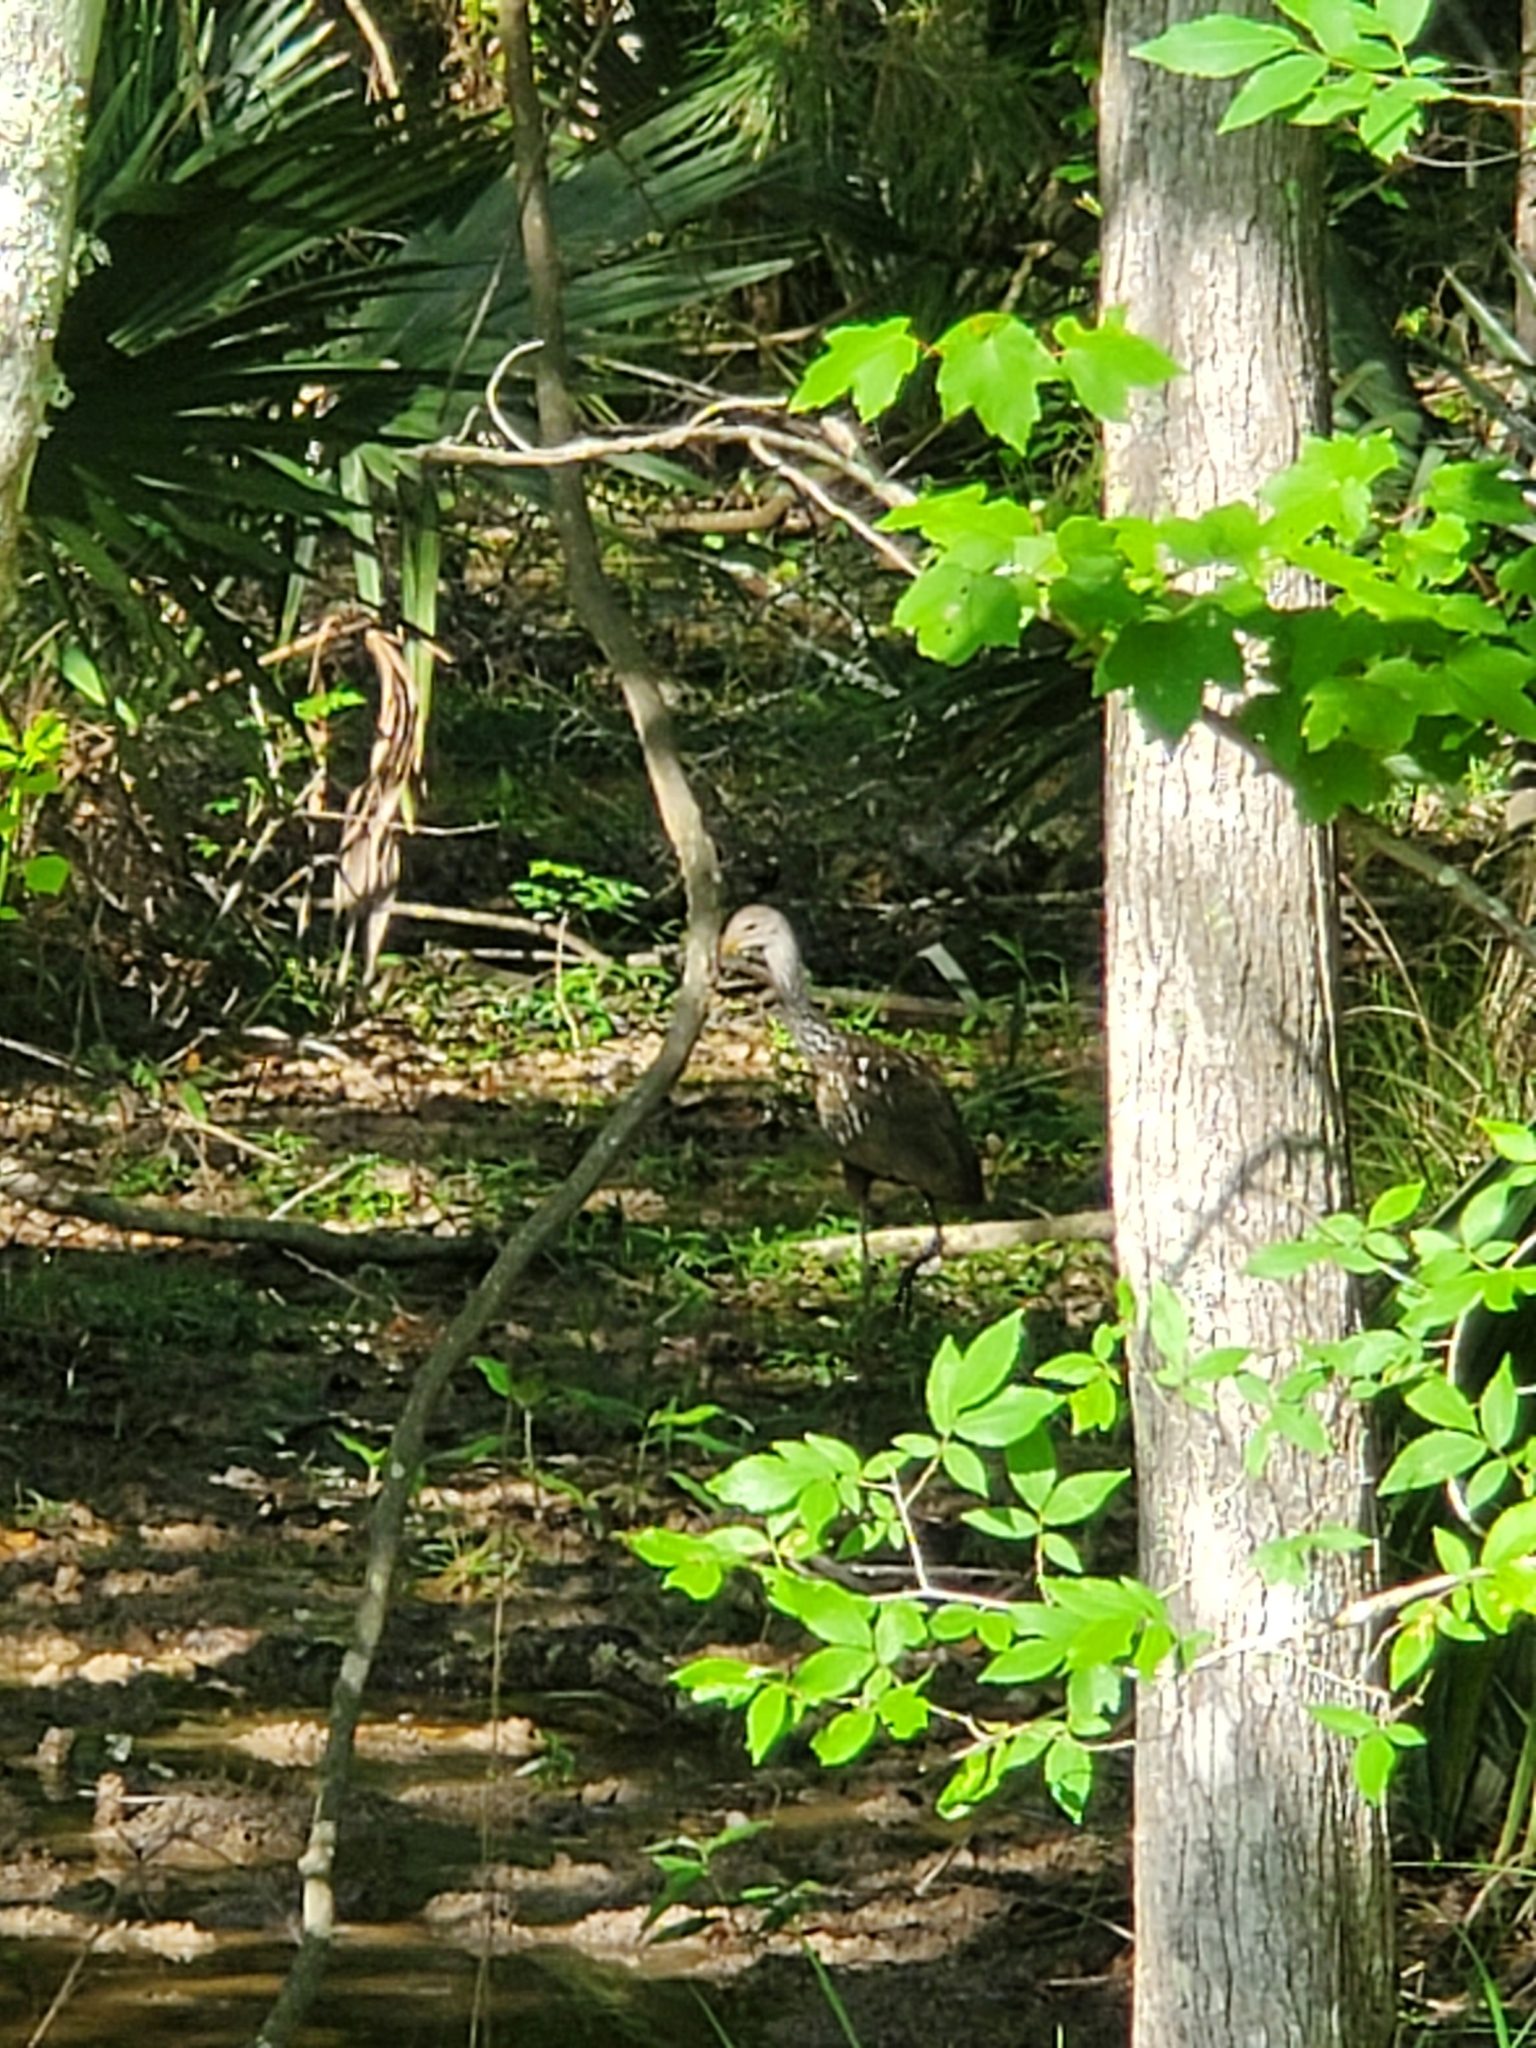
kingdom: Animalia
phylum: Chordata
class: Aves
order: Gruiformes
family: Aramidae
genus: Aramus
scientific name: Aramus guarauna
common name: Limpkin
